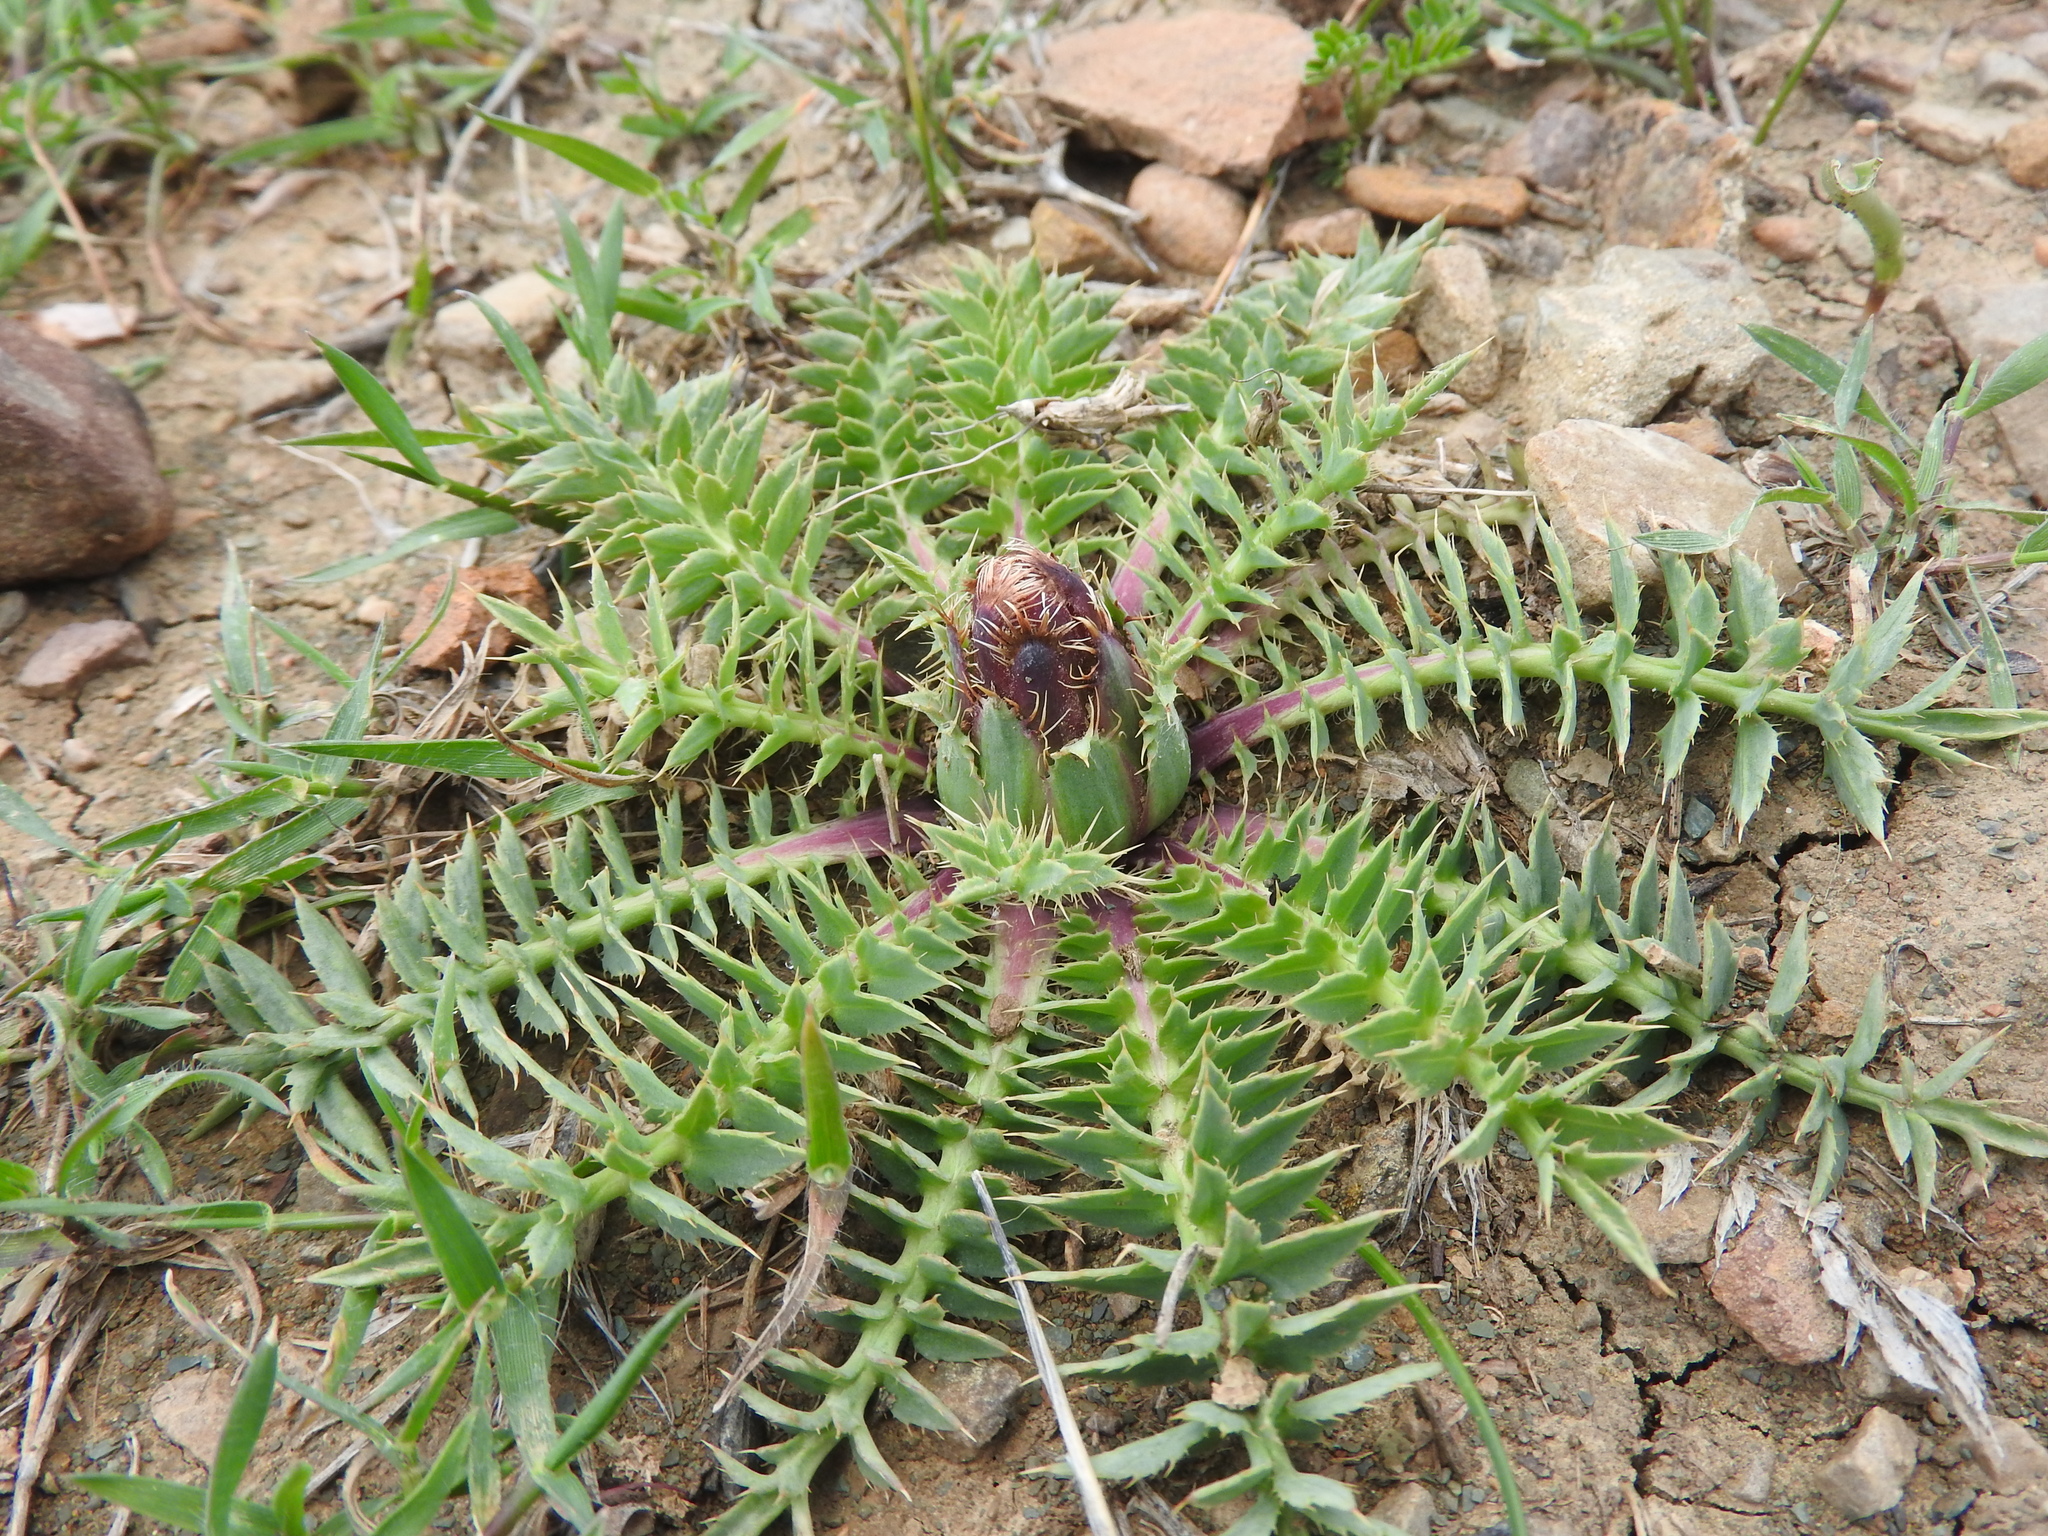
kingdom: Plantae
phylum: Tracheophyta
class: Magnoliopsida
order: Asterales
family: Asteraceae
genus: Carduncellus
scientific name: Carduncellus
